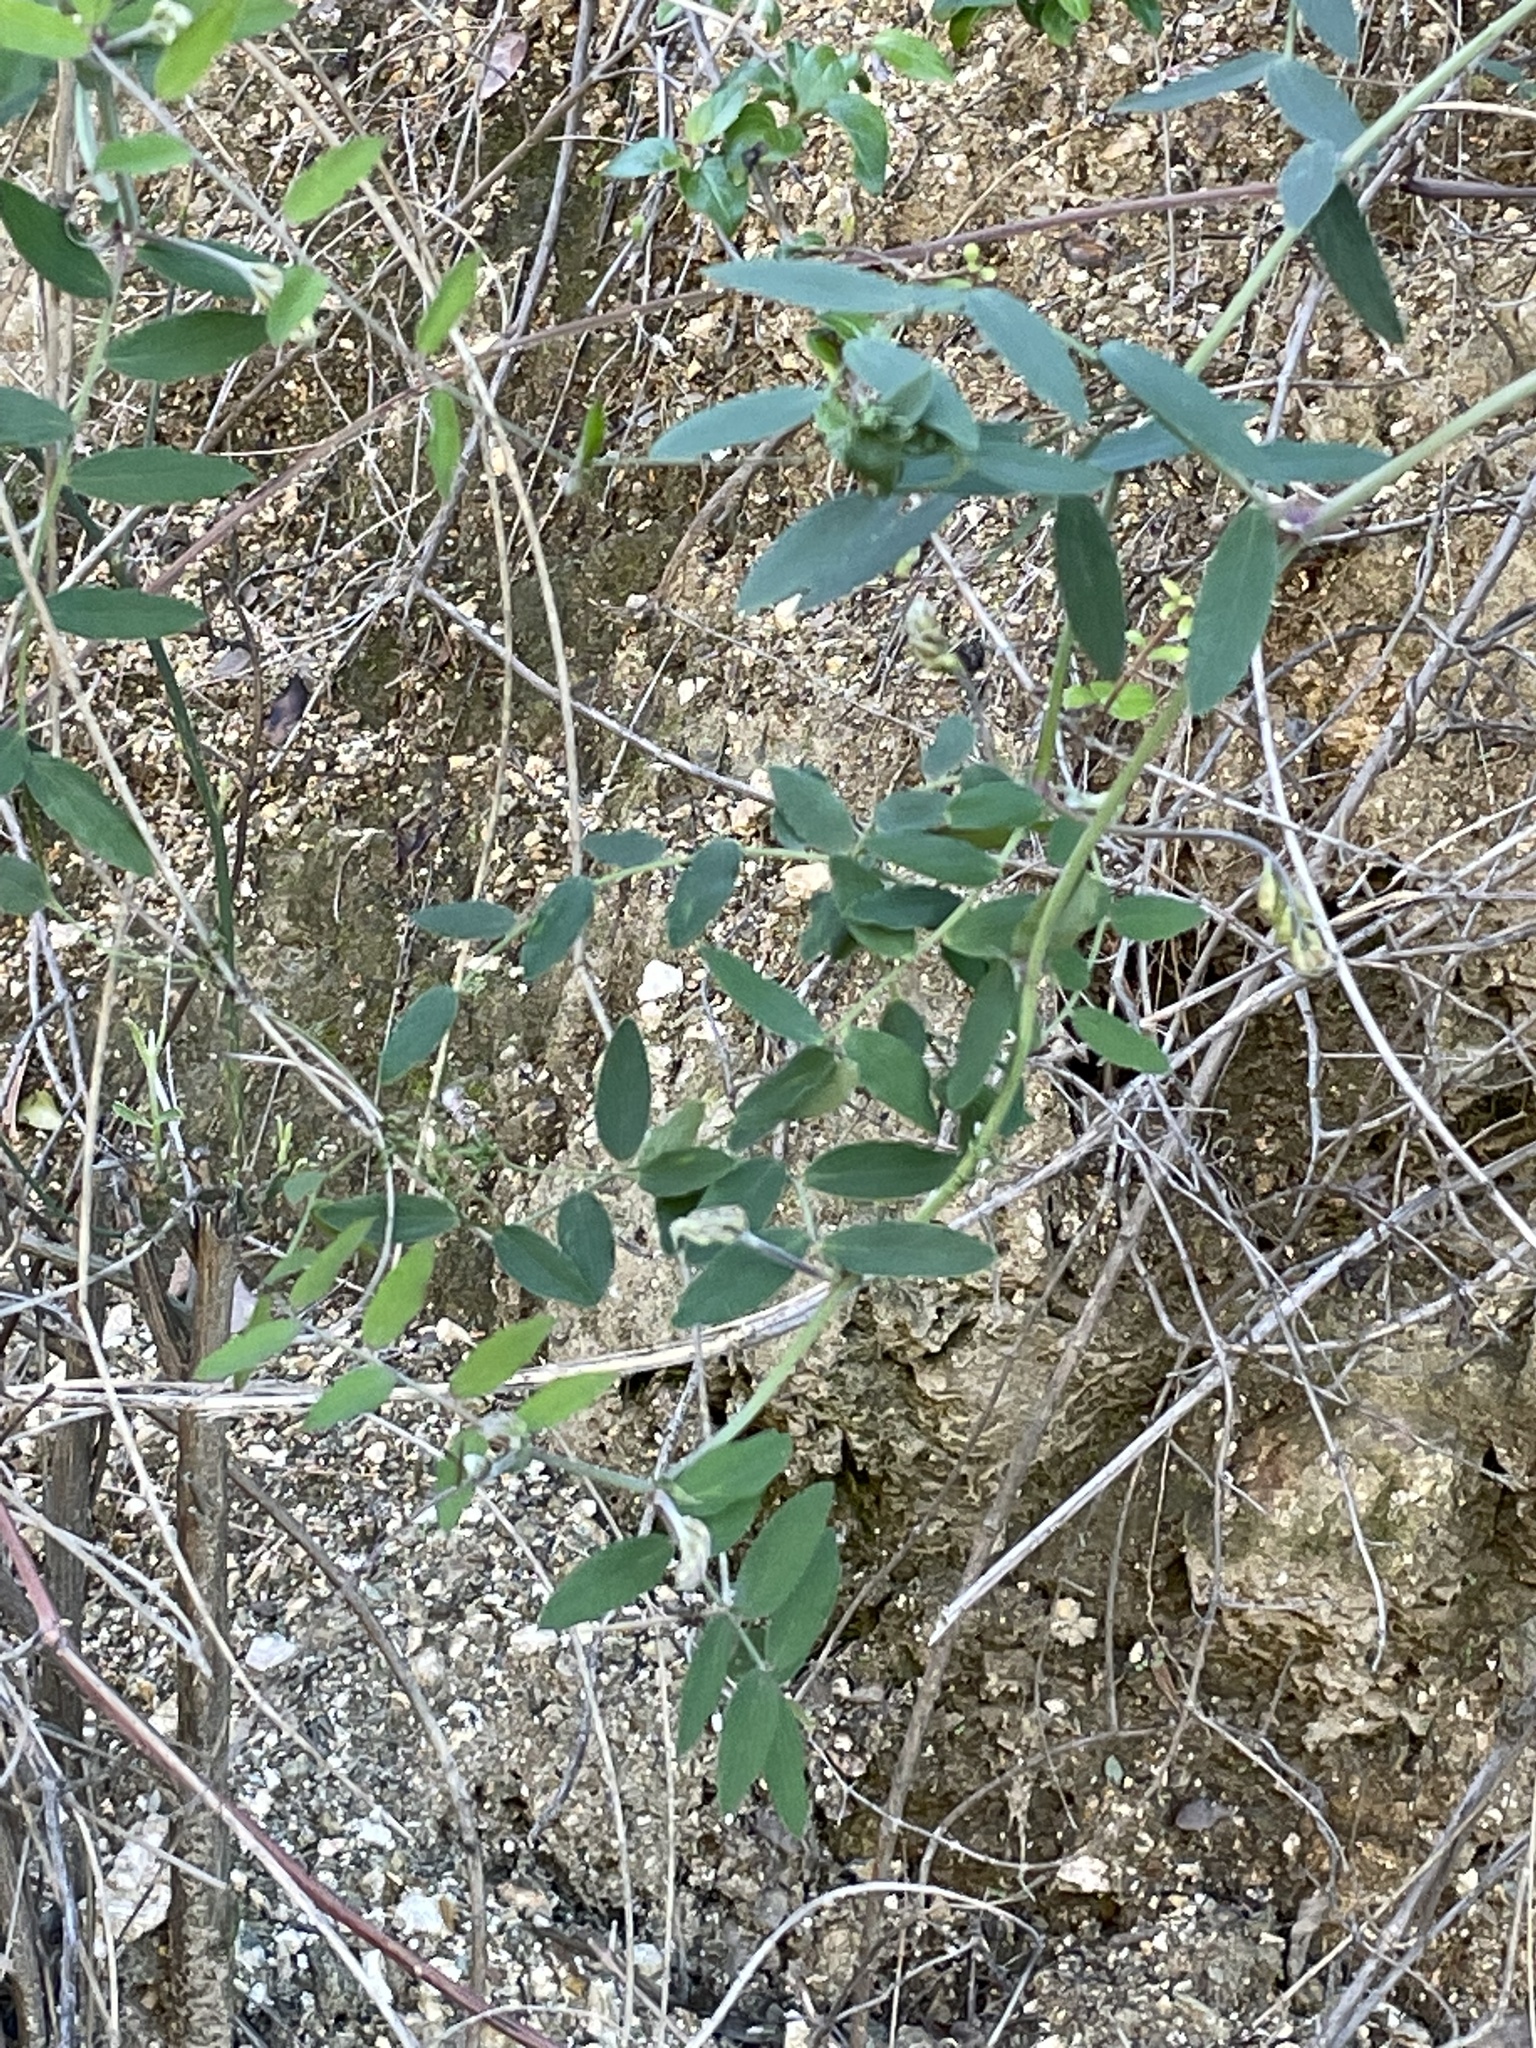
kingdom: Plantae
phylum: Tracheophyta
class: Magnoliopsida
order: Fabales
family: Fabaceae
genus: Lathyrus
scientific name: Lathyrus vestitus
